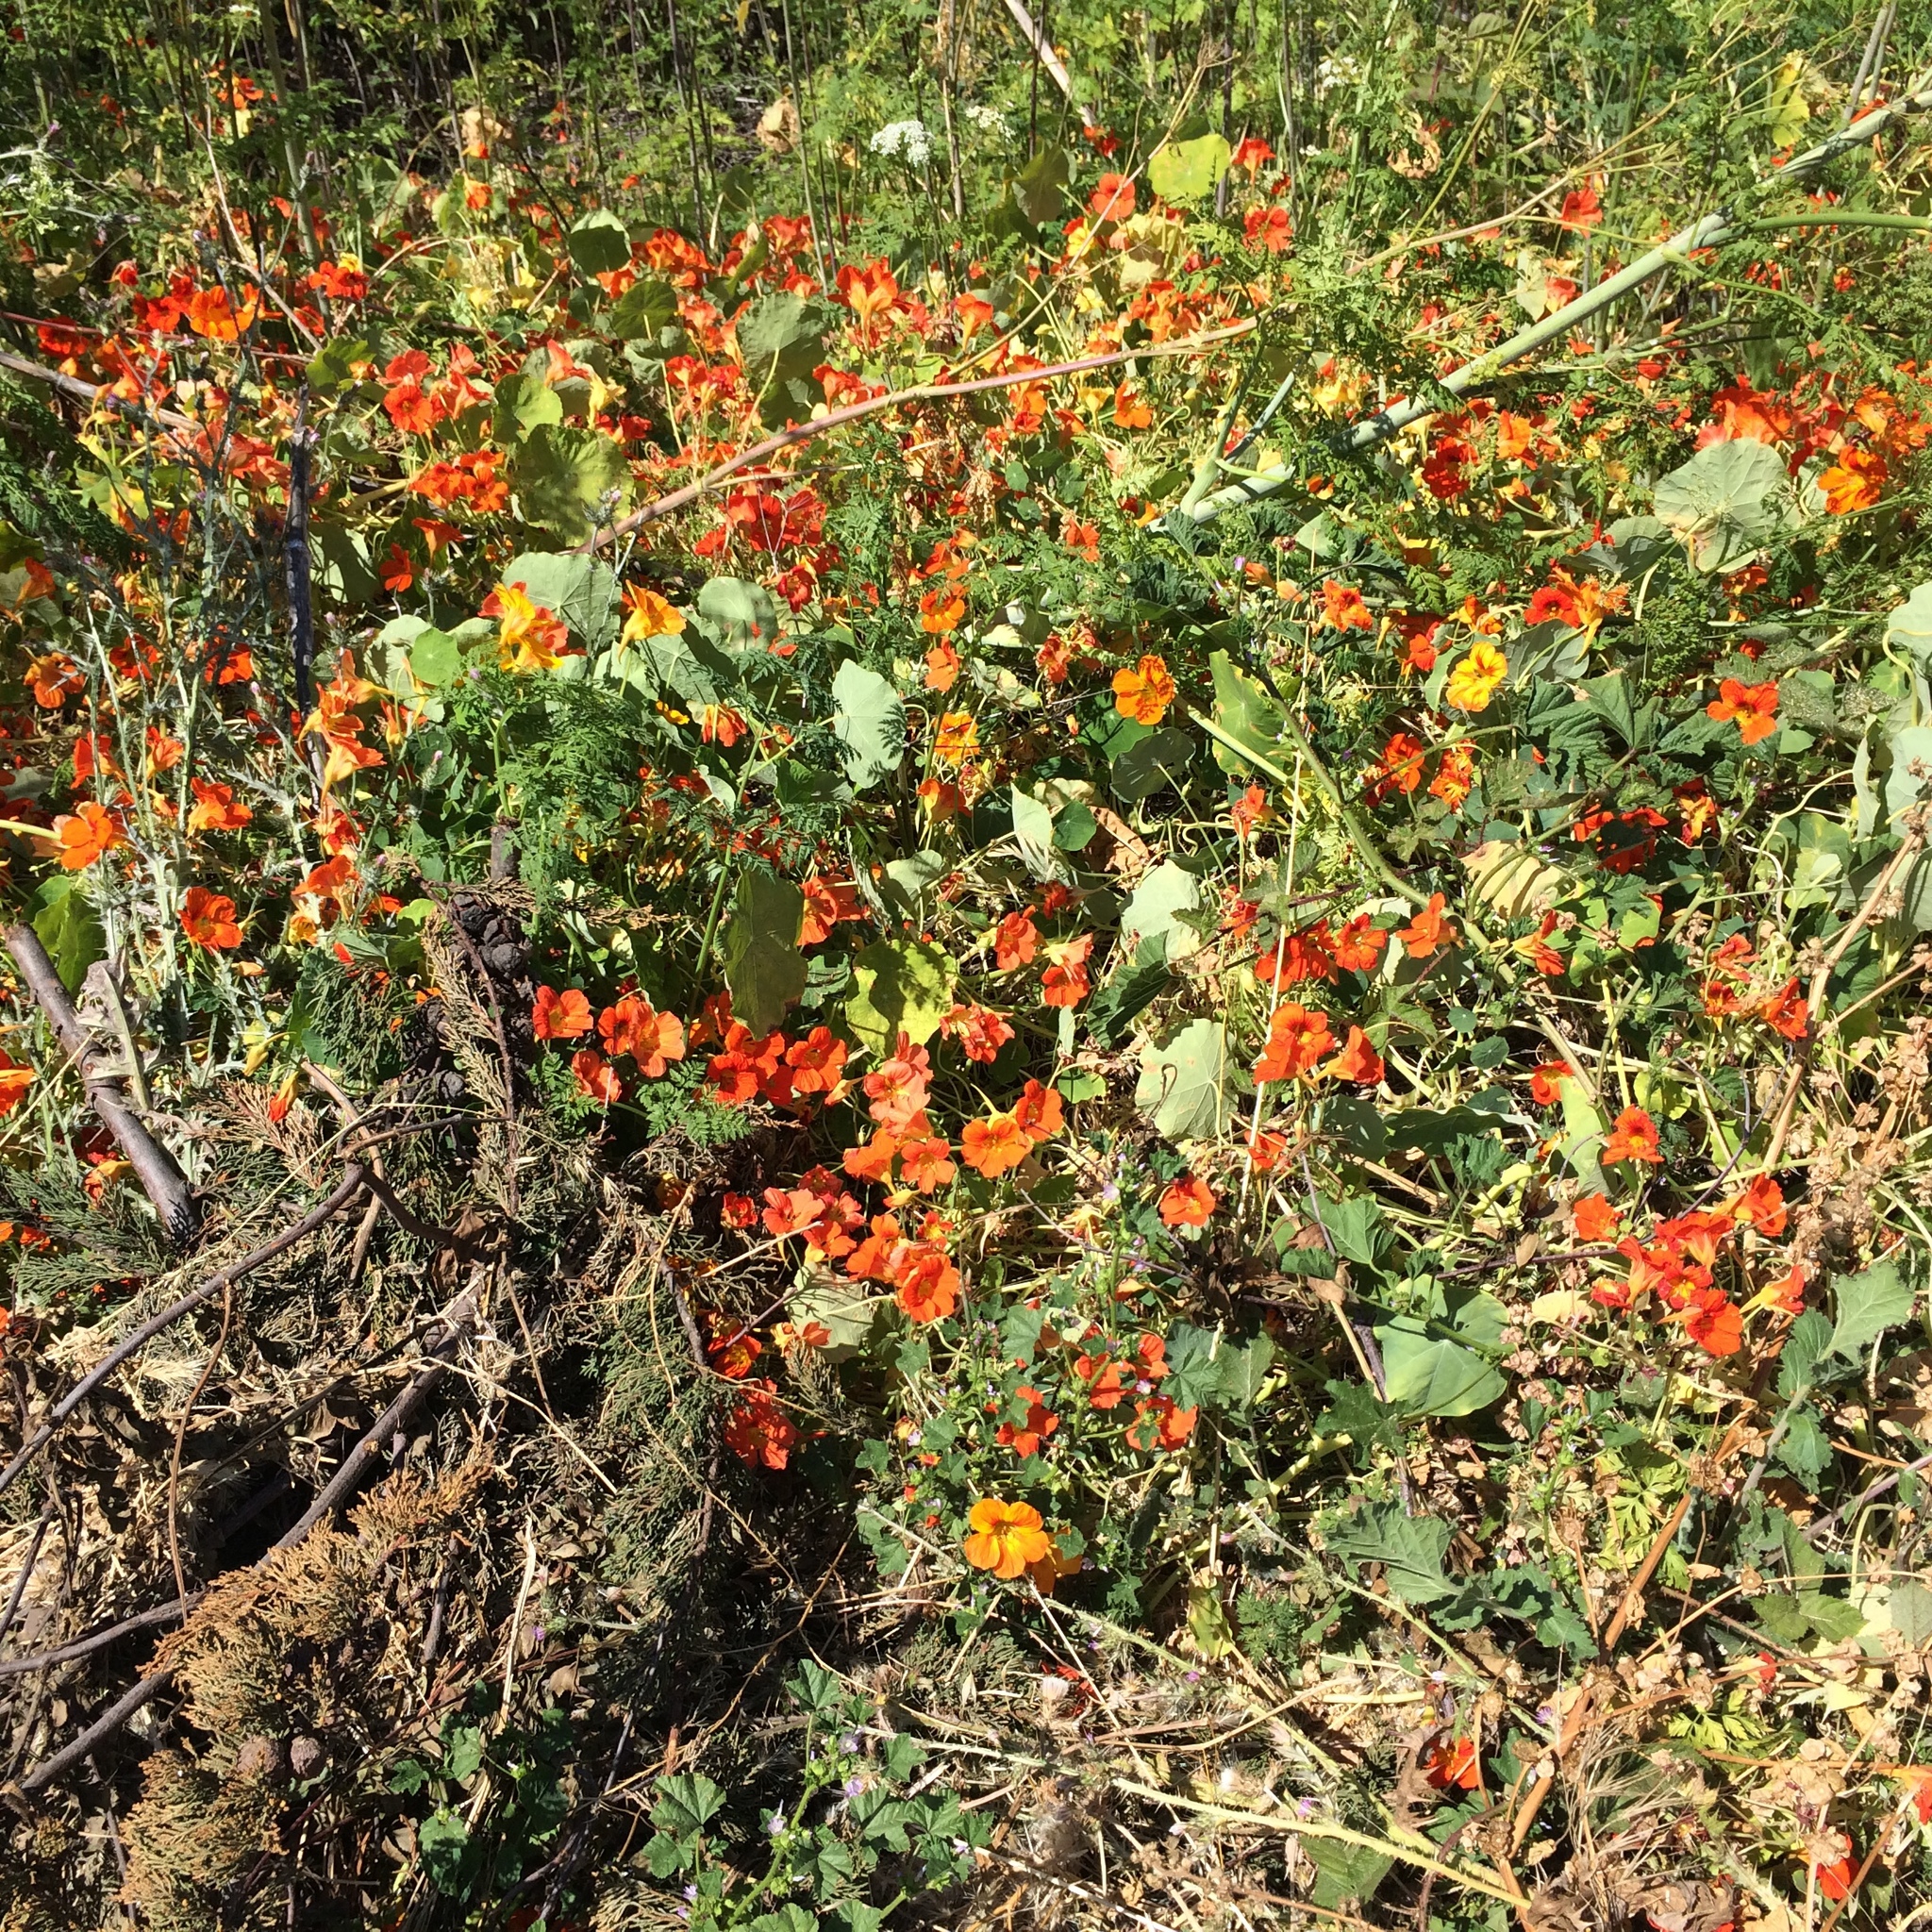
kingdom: Plantae
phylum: Tracheophyta
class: Magnoliopsida
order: Brassicales
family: Tropaeolaceae
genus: Tropaeolum
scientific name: Tropaeolum majus
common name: Nasturtium
